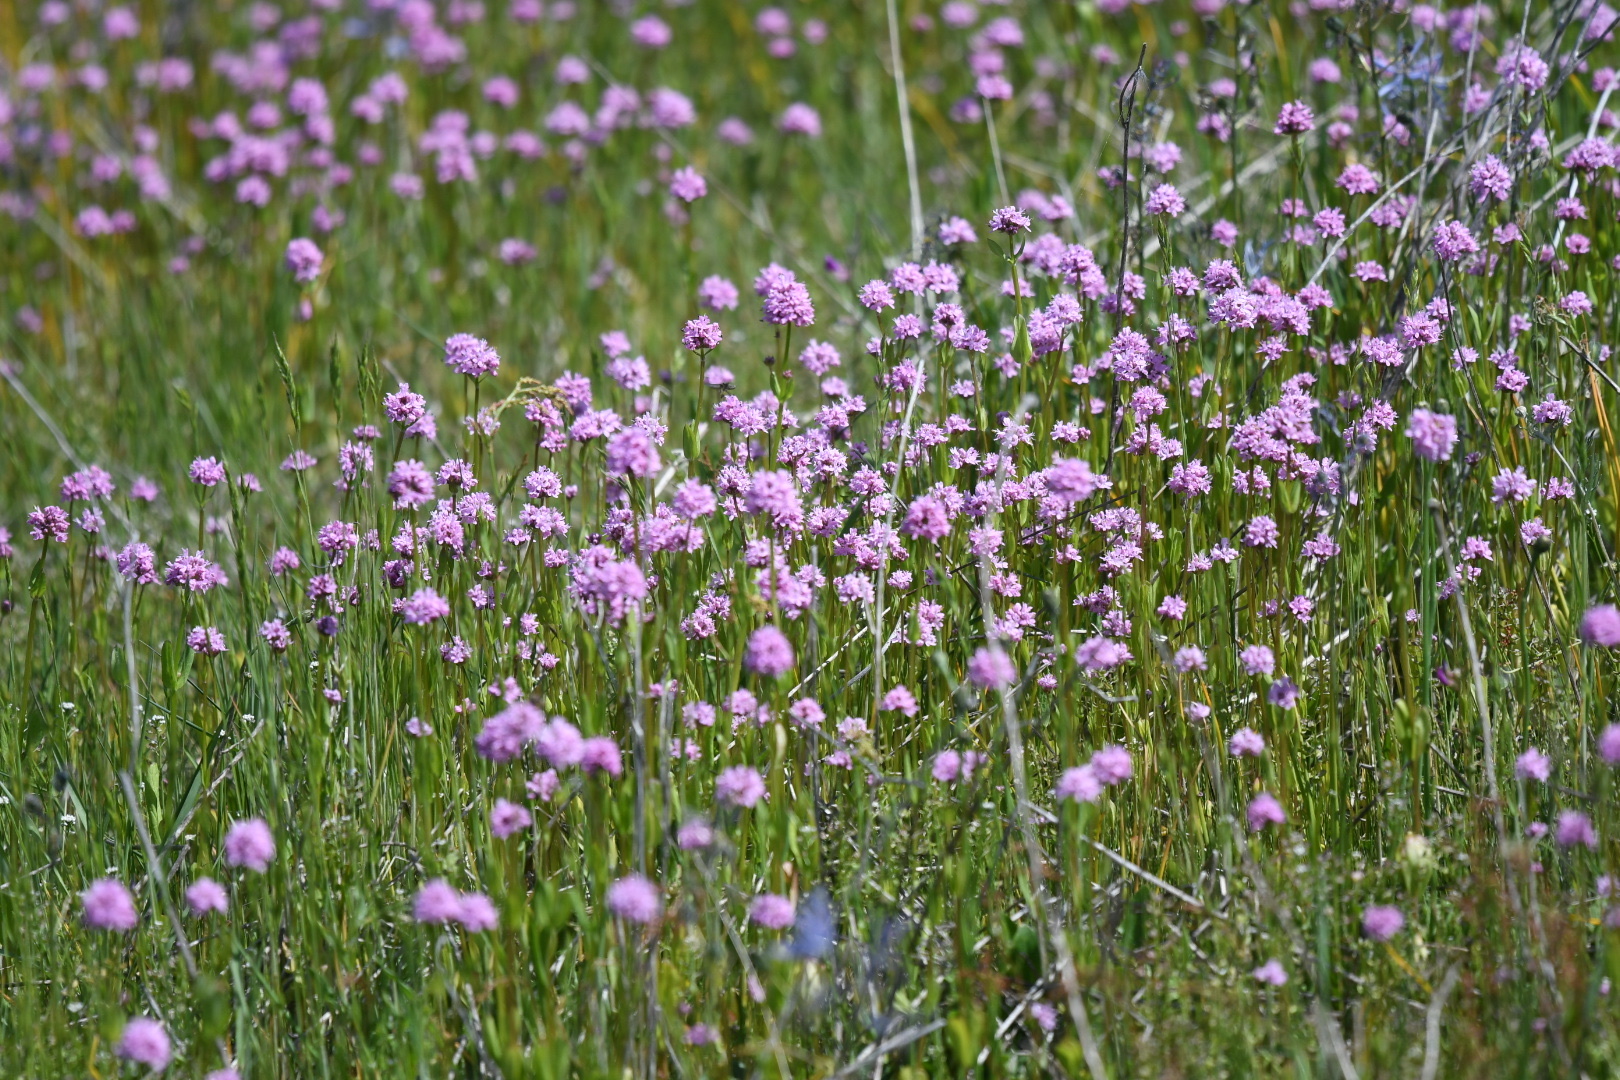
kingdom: Plantae
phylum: Tracheophyta
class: Magnoliopsida
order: Dipsacales
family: Caprifoliaceae
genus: Plectritis
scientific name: Plectritis congesta
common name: Pink plectritis
